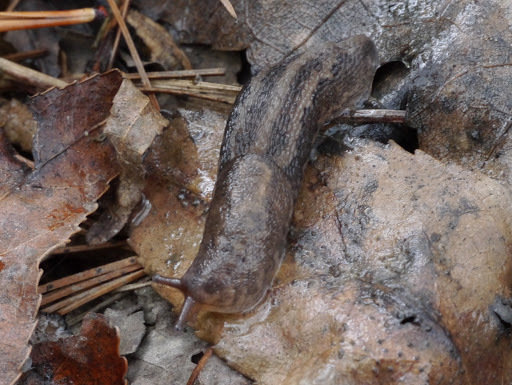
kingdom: Animalia
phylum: Mollusca
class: Gastropoda
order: Stylommatophora
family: Limacidae
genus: Limax
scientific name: Limax maximus
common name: Great grey slug
